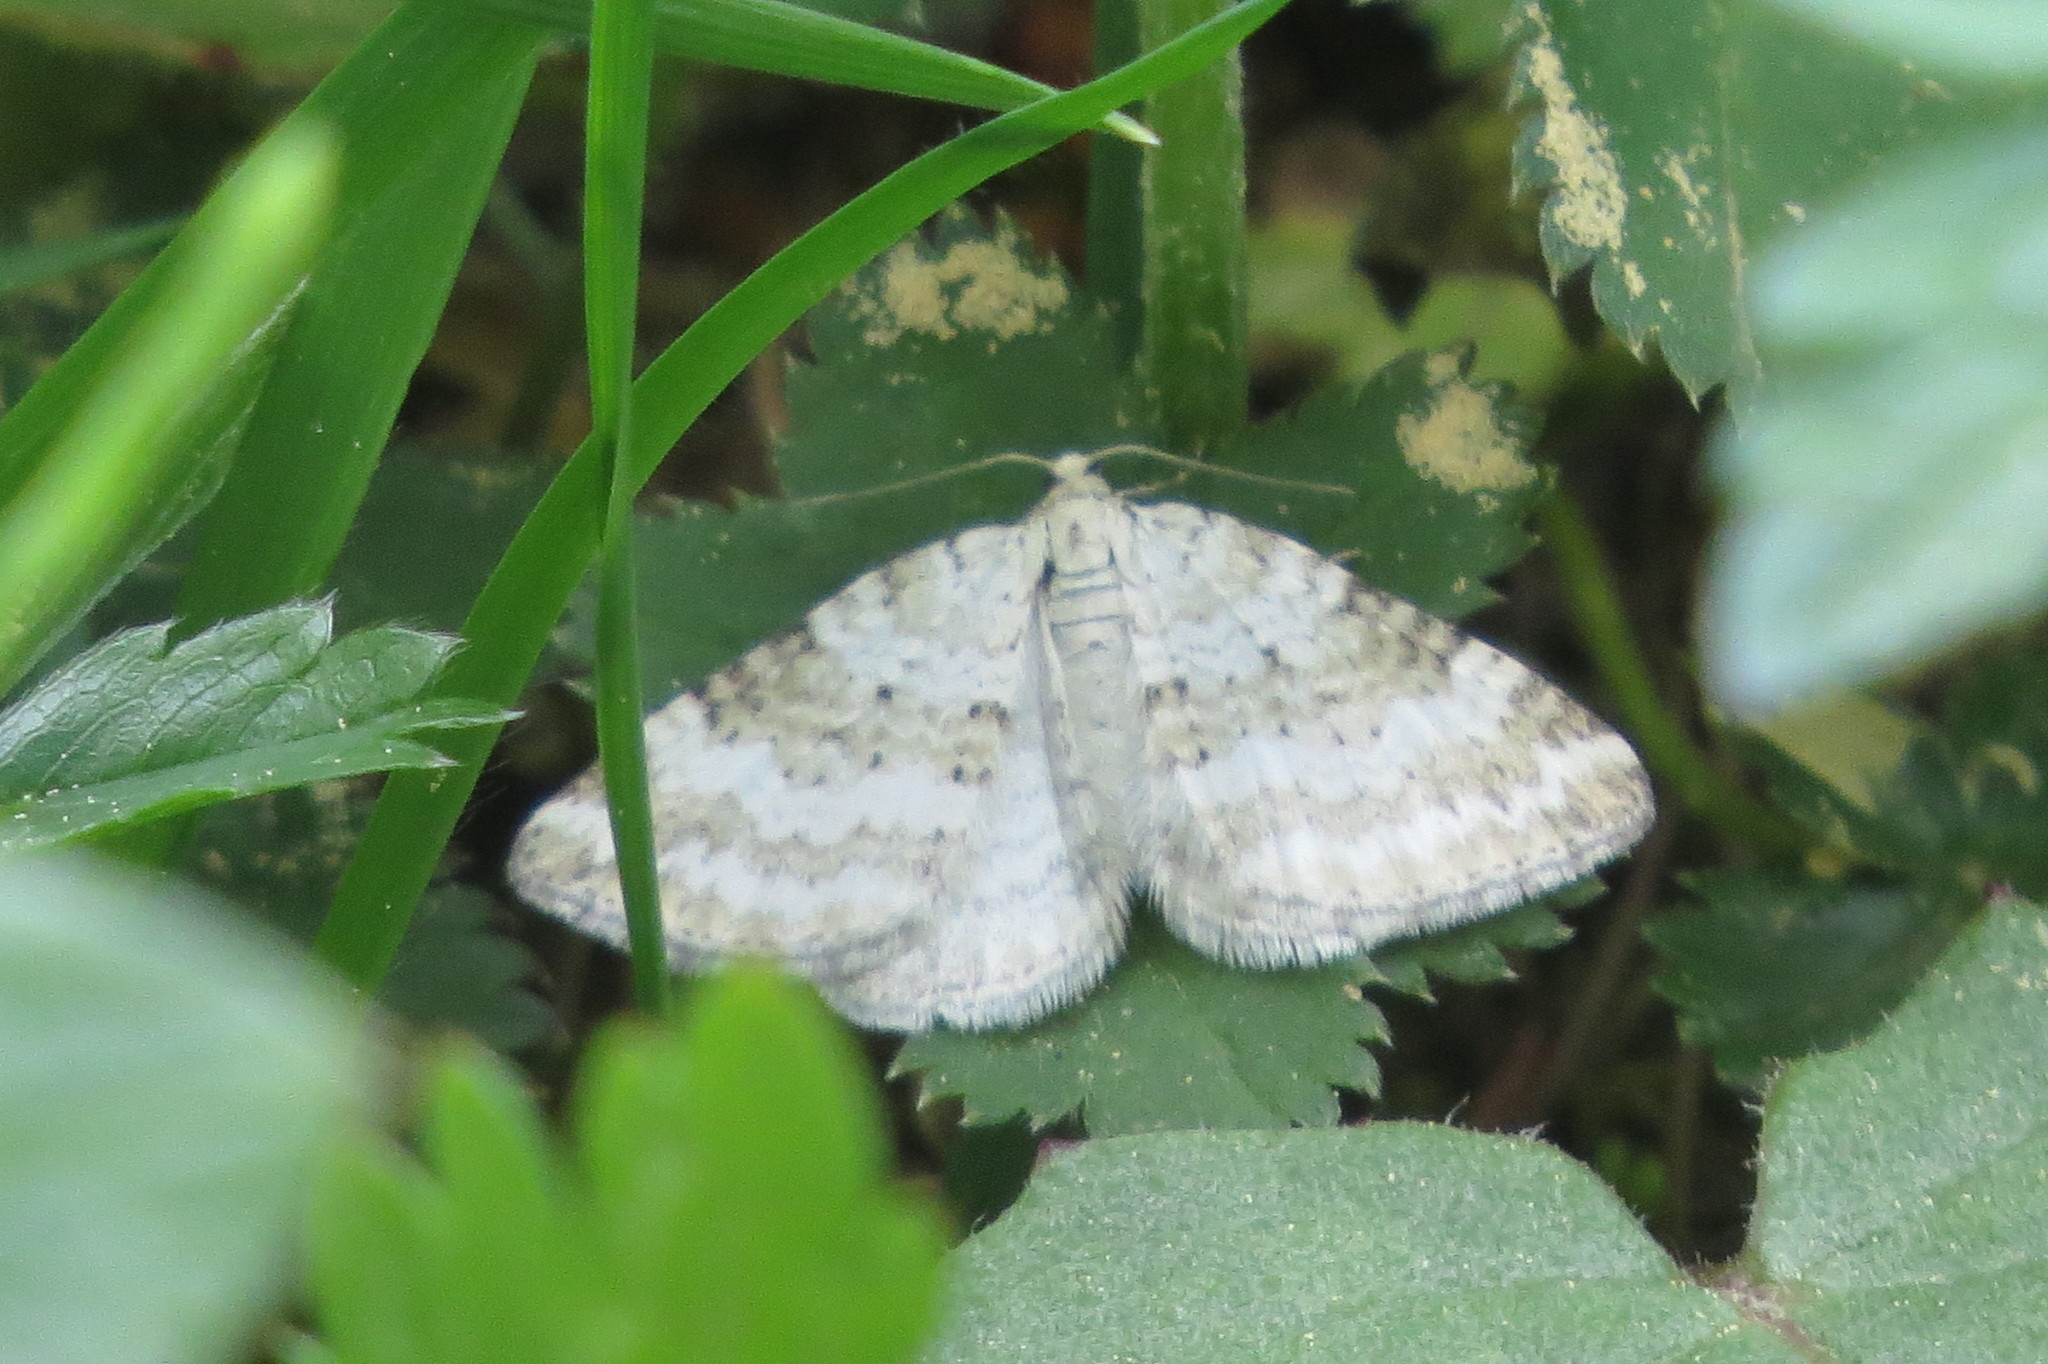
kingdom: Animalia
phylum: Arthropoda
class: Insecta
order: Lepidoptera
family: Geometridae
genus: Perizoma
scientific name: Perizoma albulata
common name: Grass rivulet
